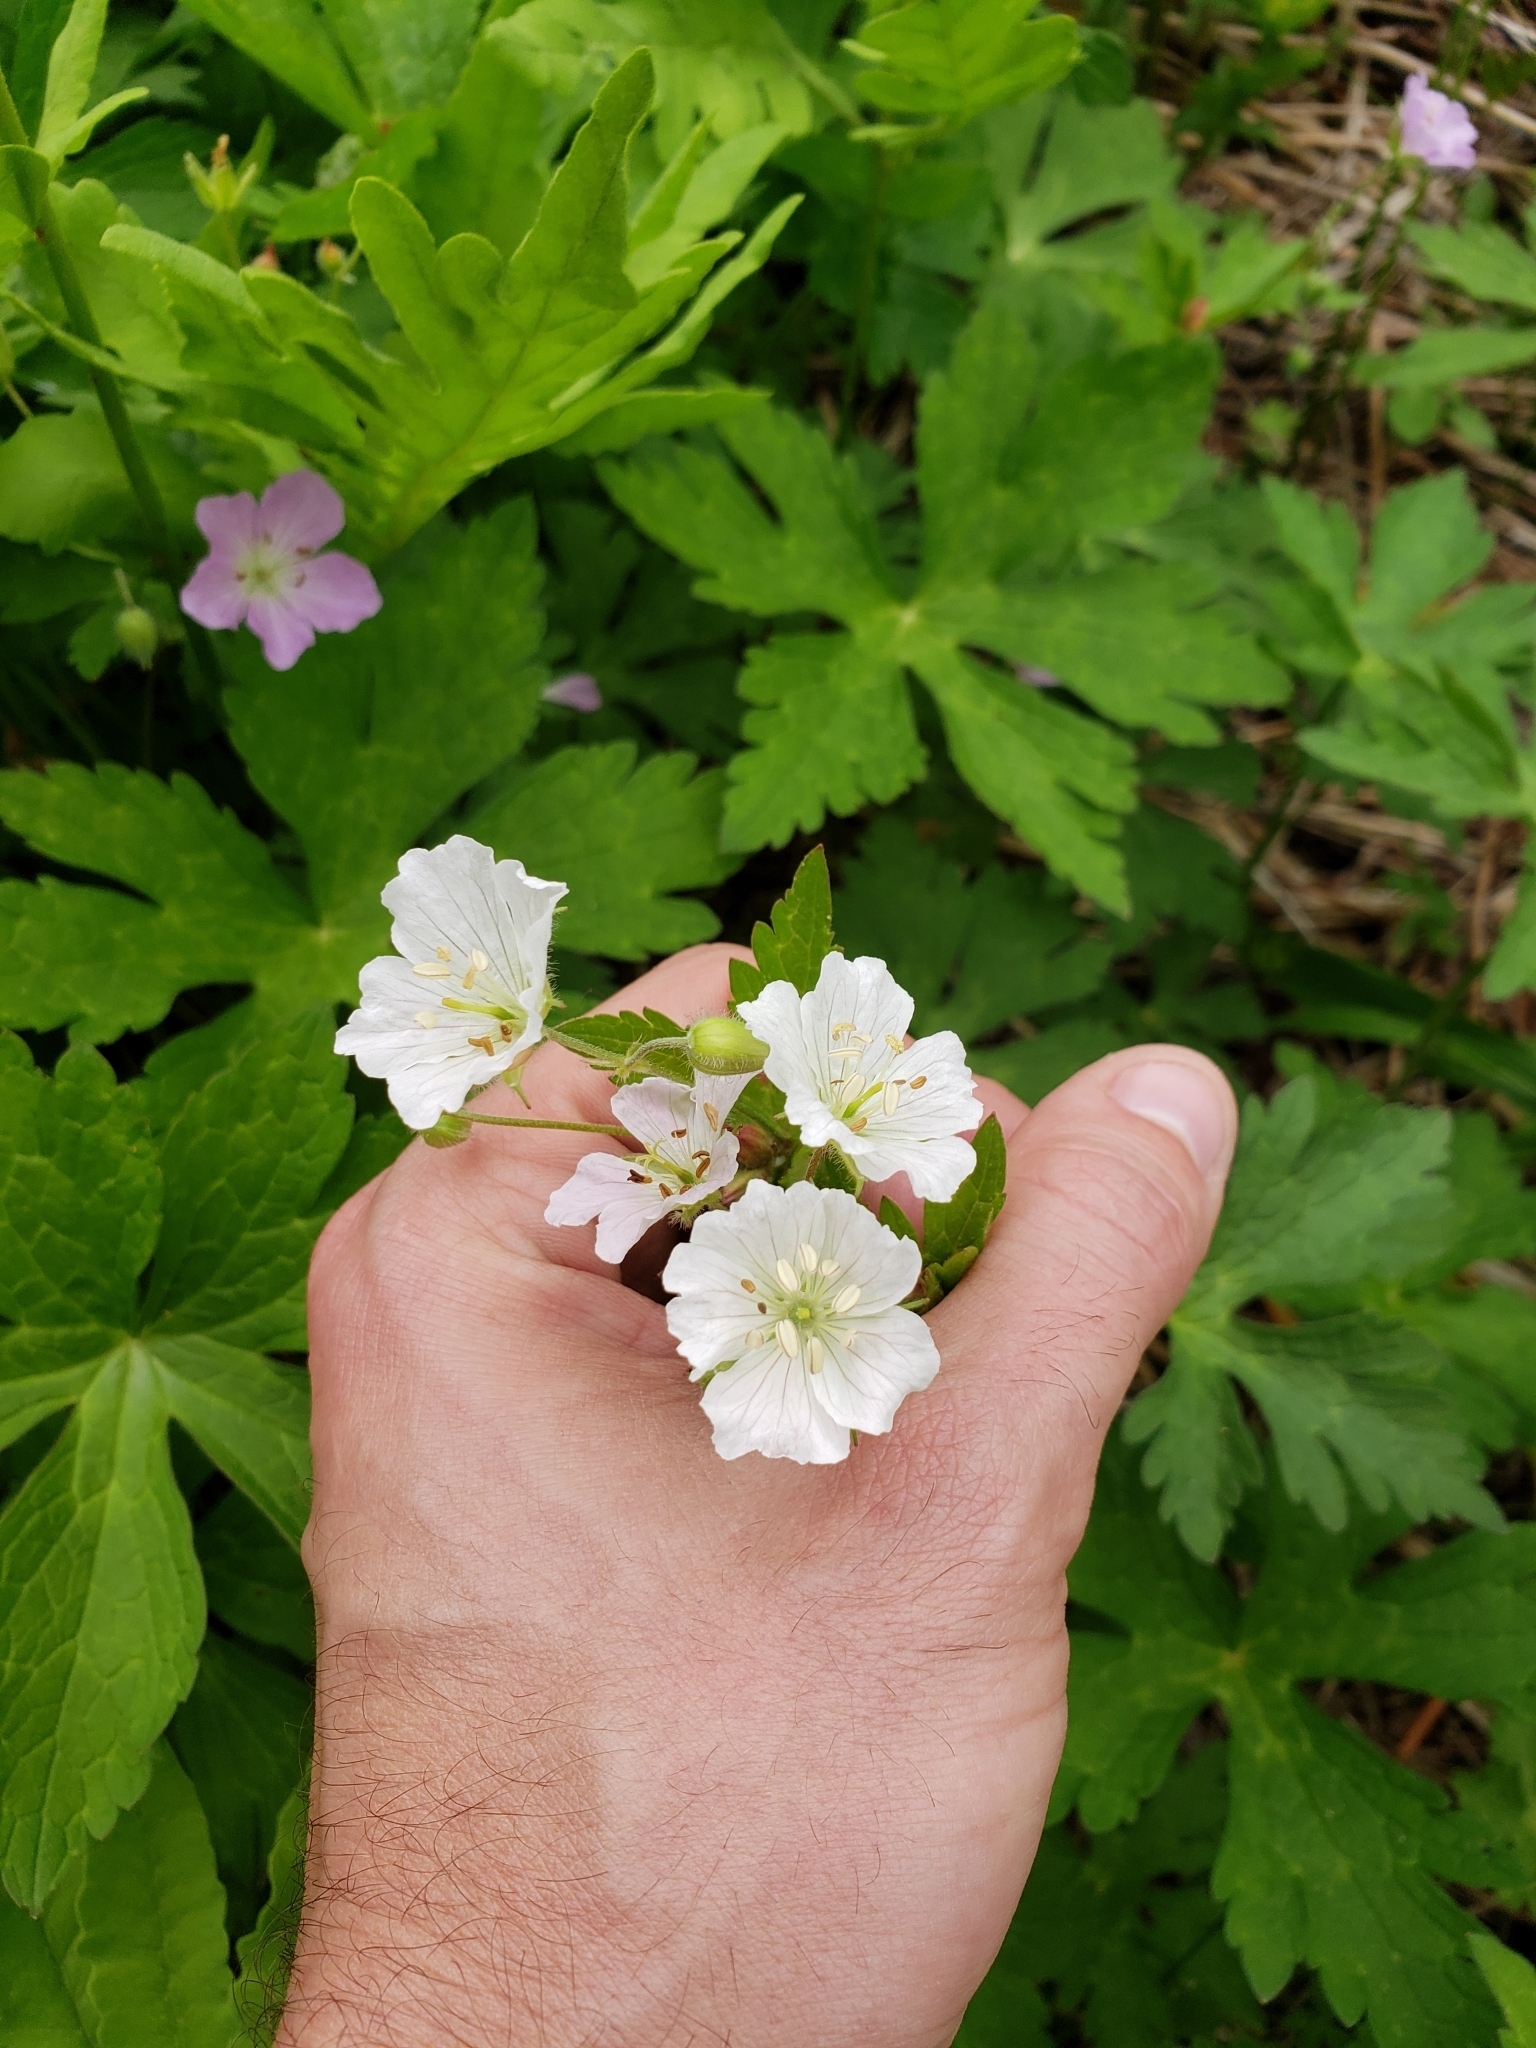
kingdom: Plantae
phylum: Tracheophyta
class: Magnoliopsida
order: Geraniales
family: Geraniaceae
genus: Geranium
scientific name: Geranium maculatum
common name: Spotted geranium
